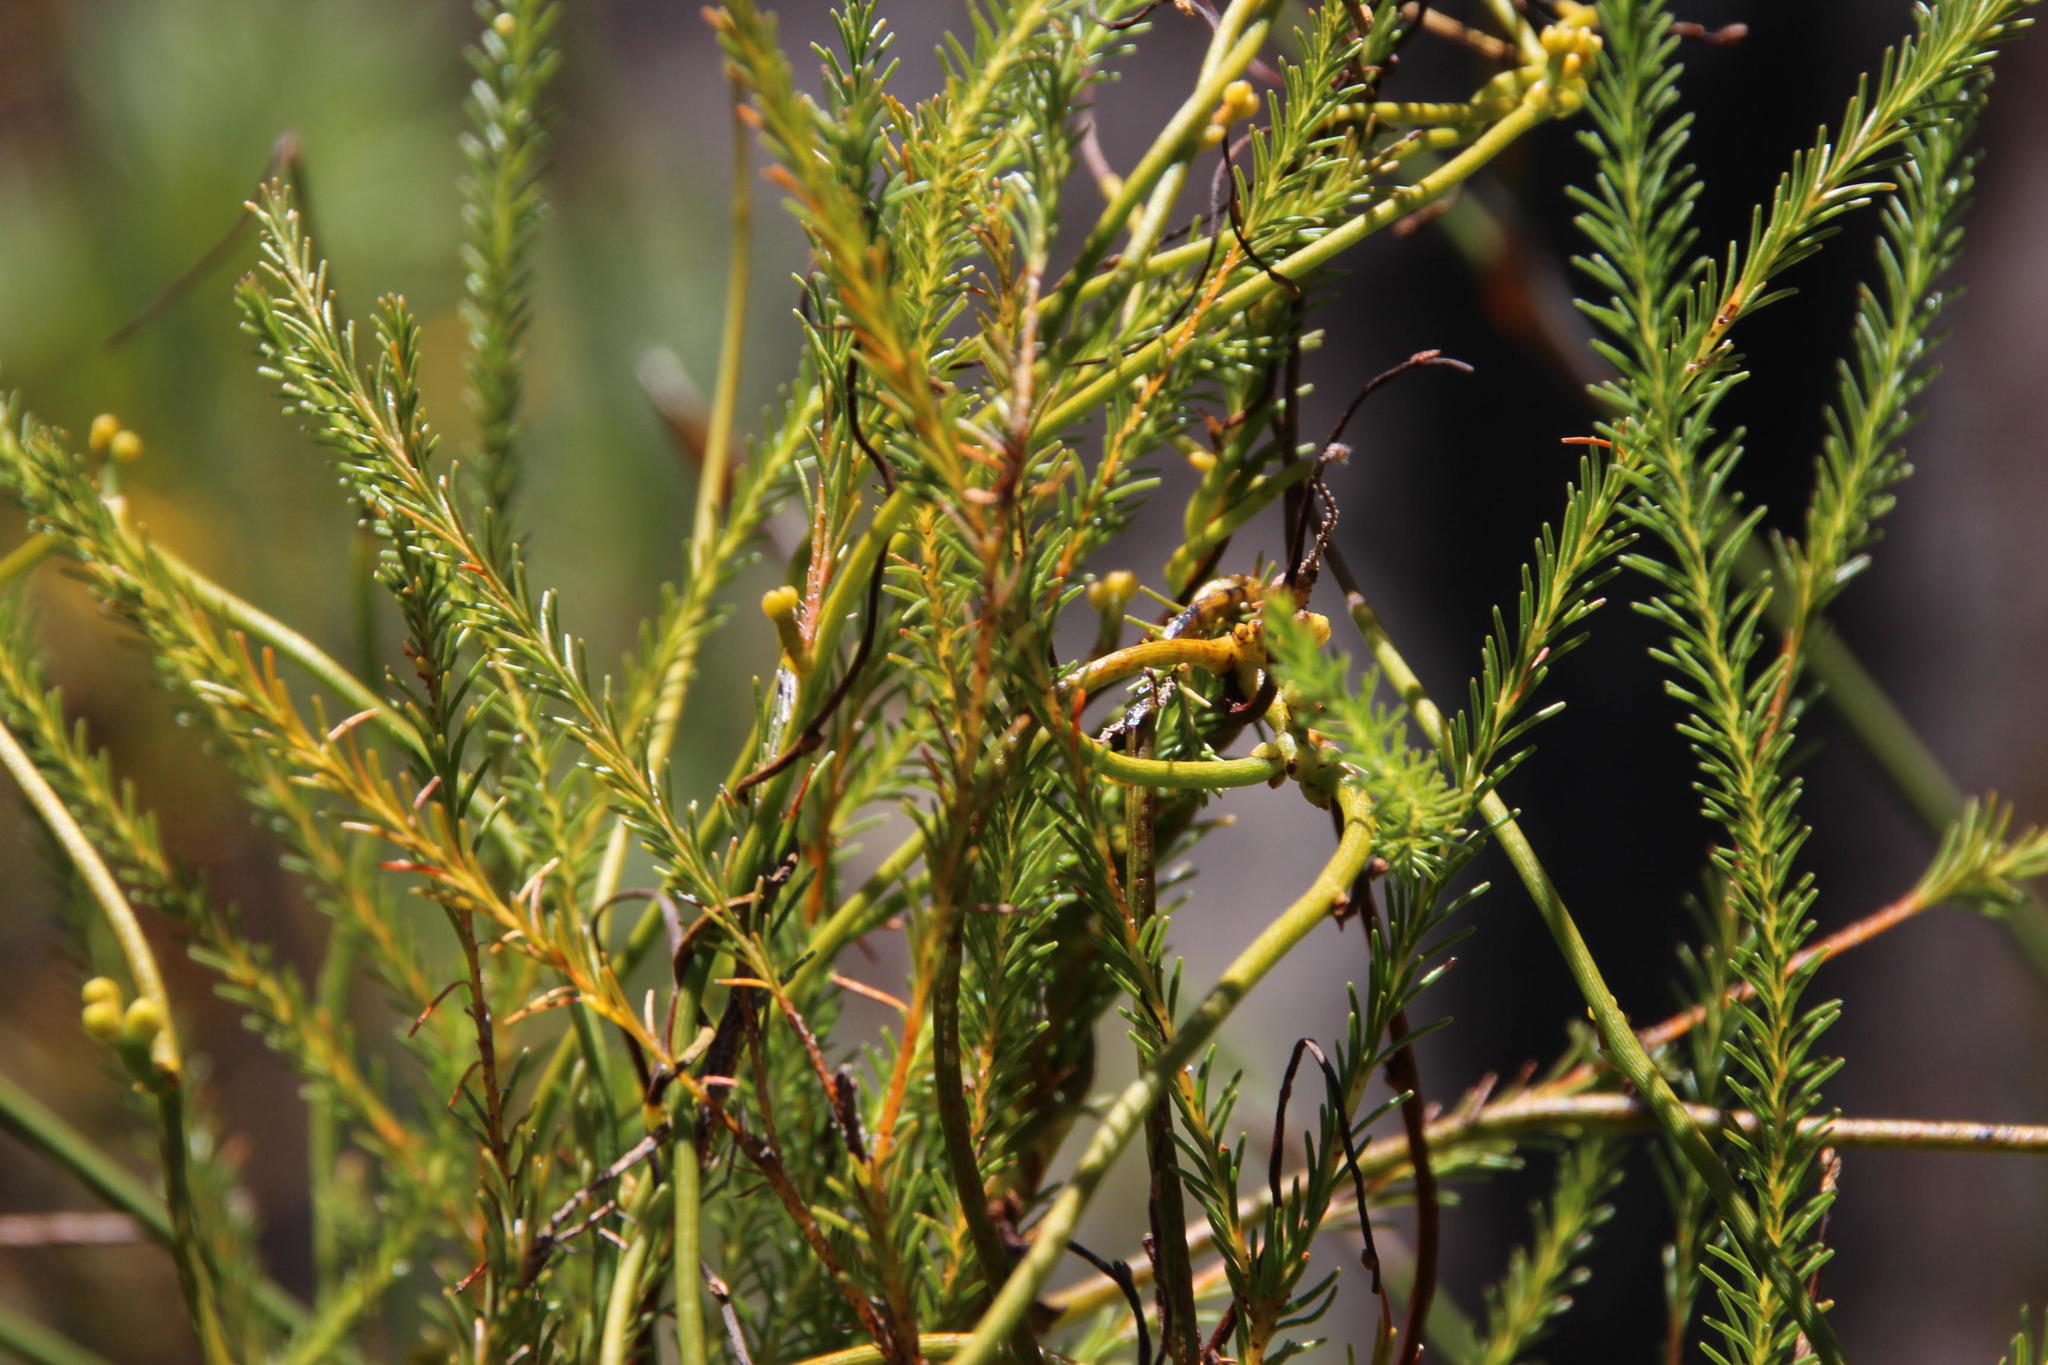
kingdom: Plantae
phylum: Tracheophyta
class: Magnoliopsida
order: Laurales
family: Lauraceae
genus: Cassytha
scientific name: Cassytha ciliolata
